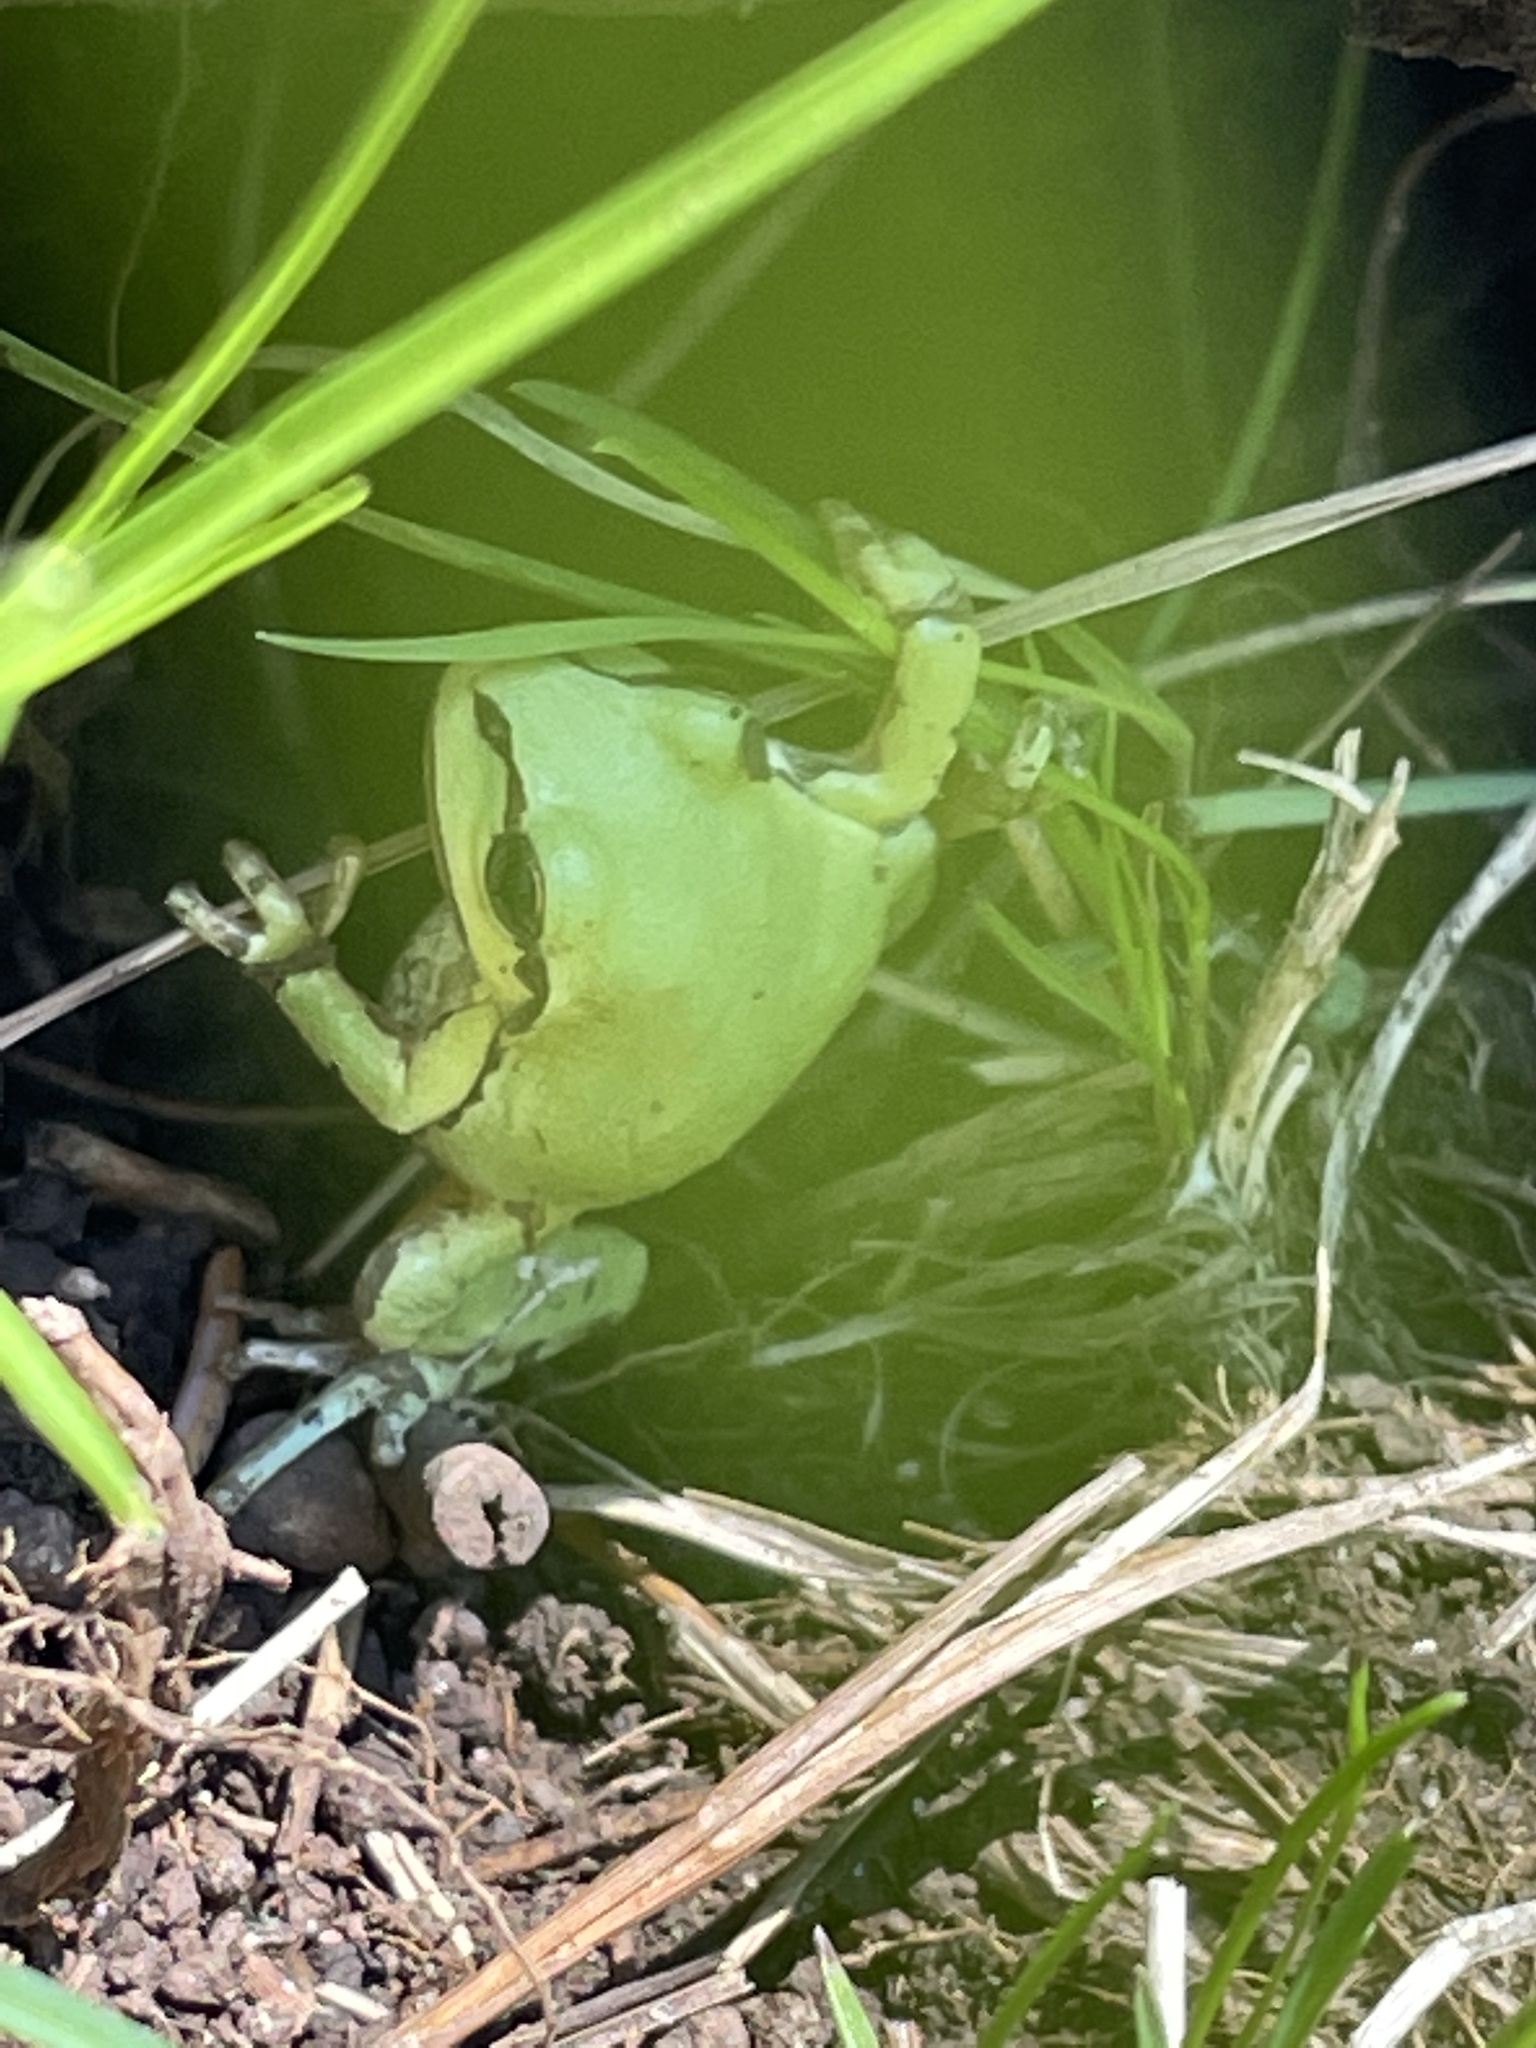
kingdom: Animalia
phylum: Chordata
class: Amphibia
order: Anura
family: Hylidae
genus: Dryophytes
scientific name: Dryophytes wrightorum
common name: Arizona treefrog
